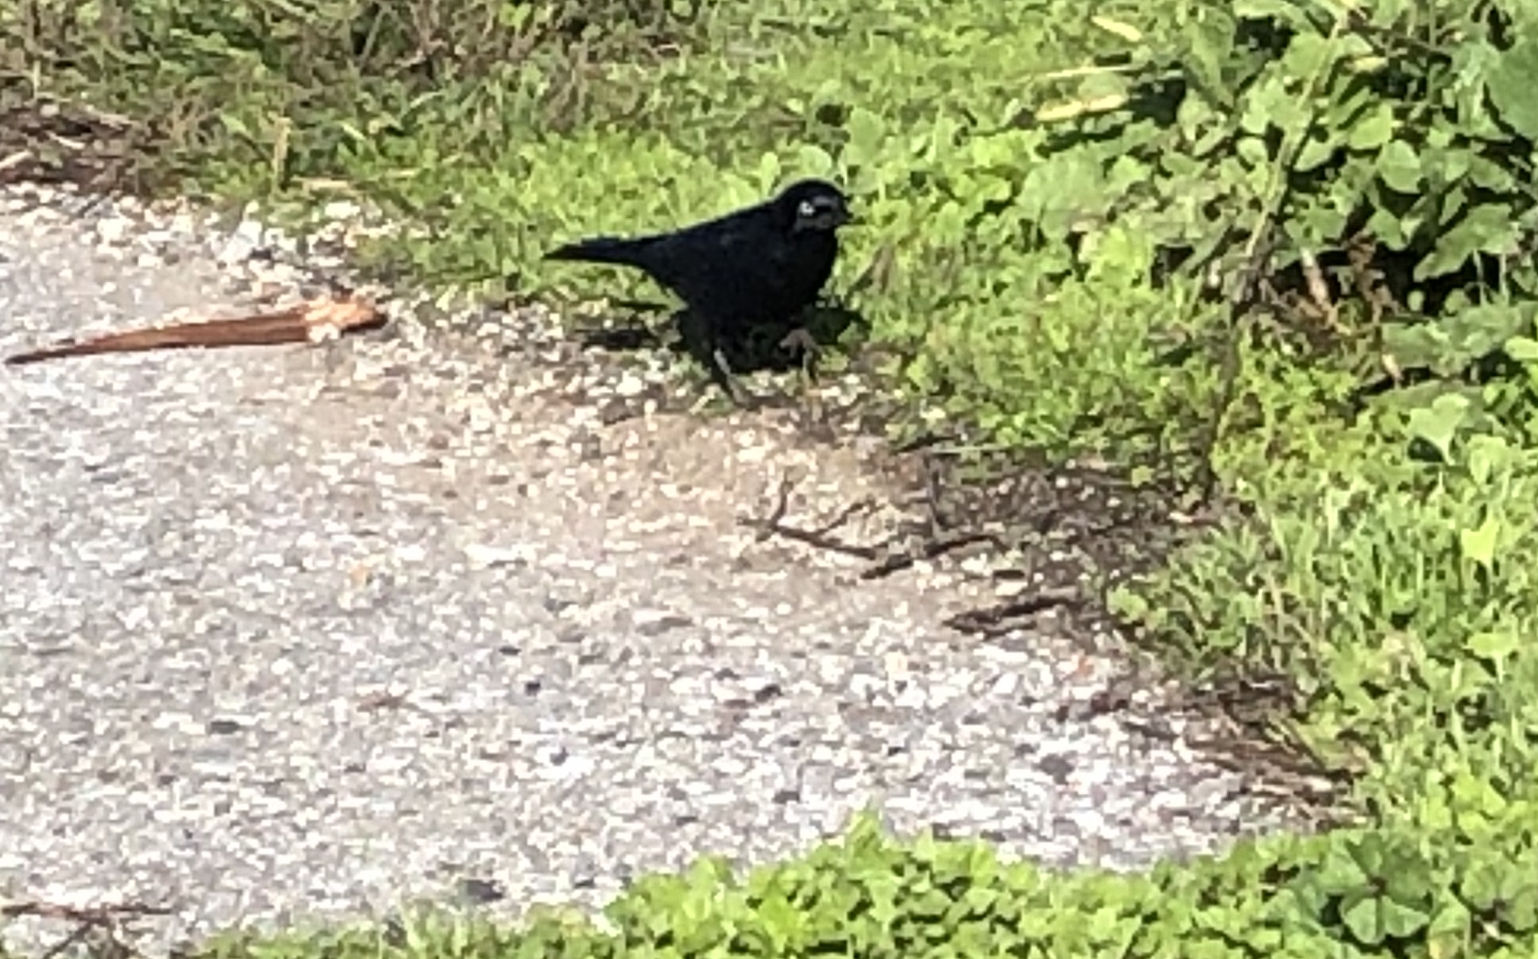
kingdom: Animalia
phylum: Chordata
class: Aves
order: Passeriformes
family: Icteridae
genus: Euphagus
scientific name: Euphagus cyanocephalus
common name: Brewer's blackbird
